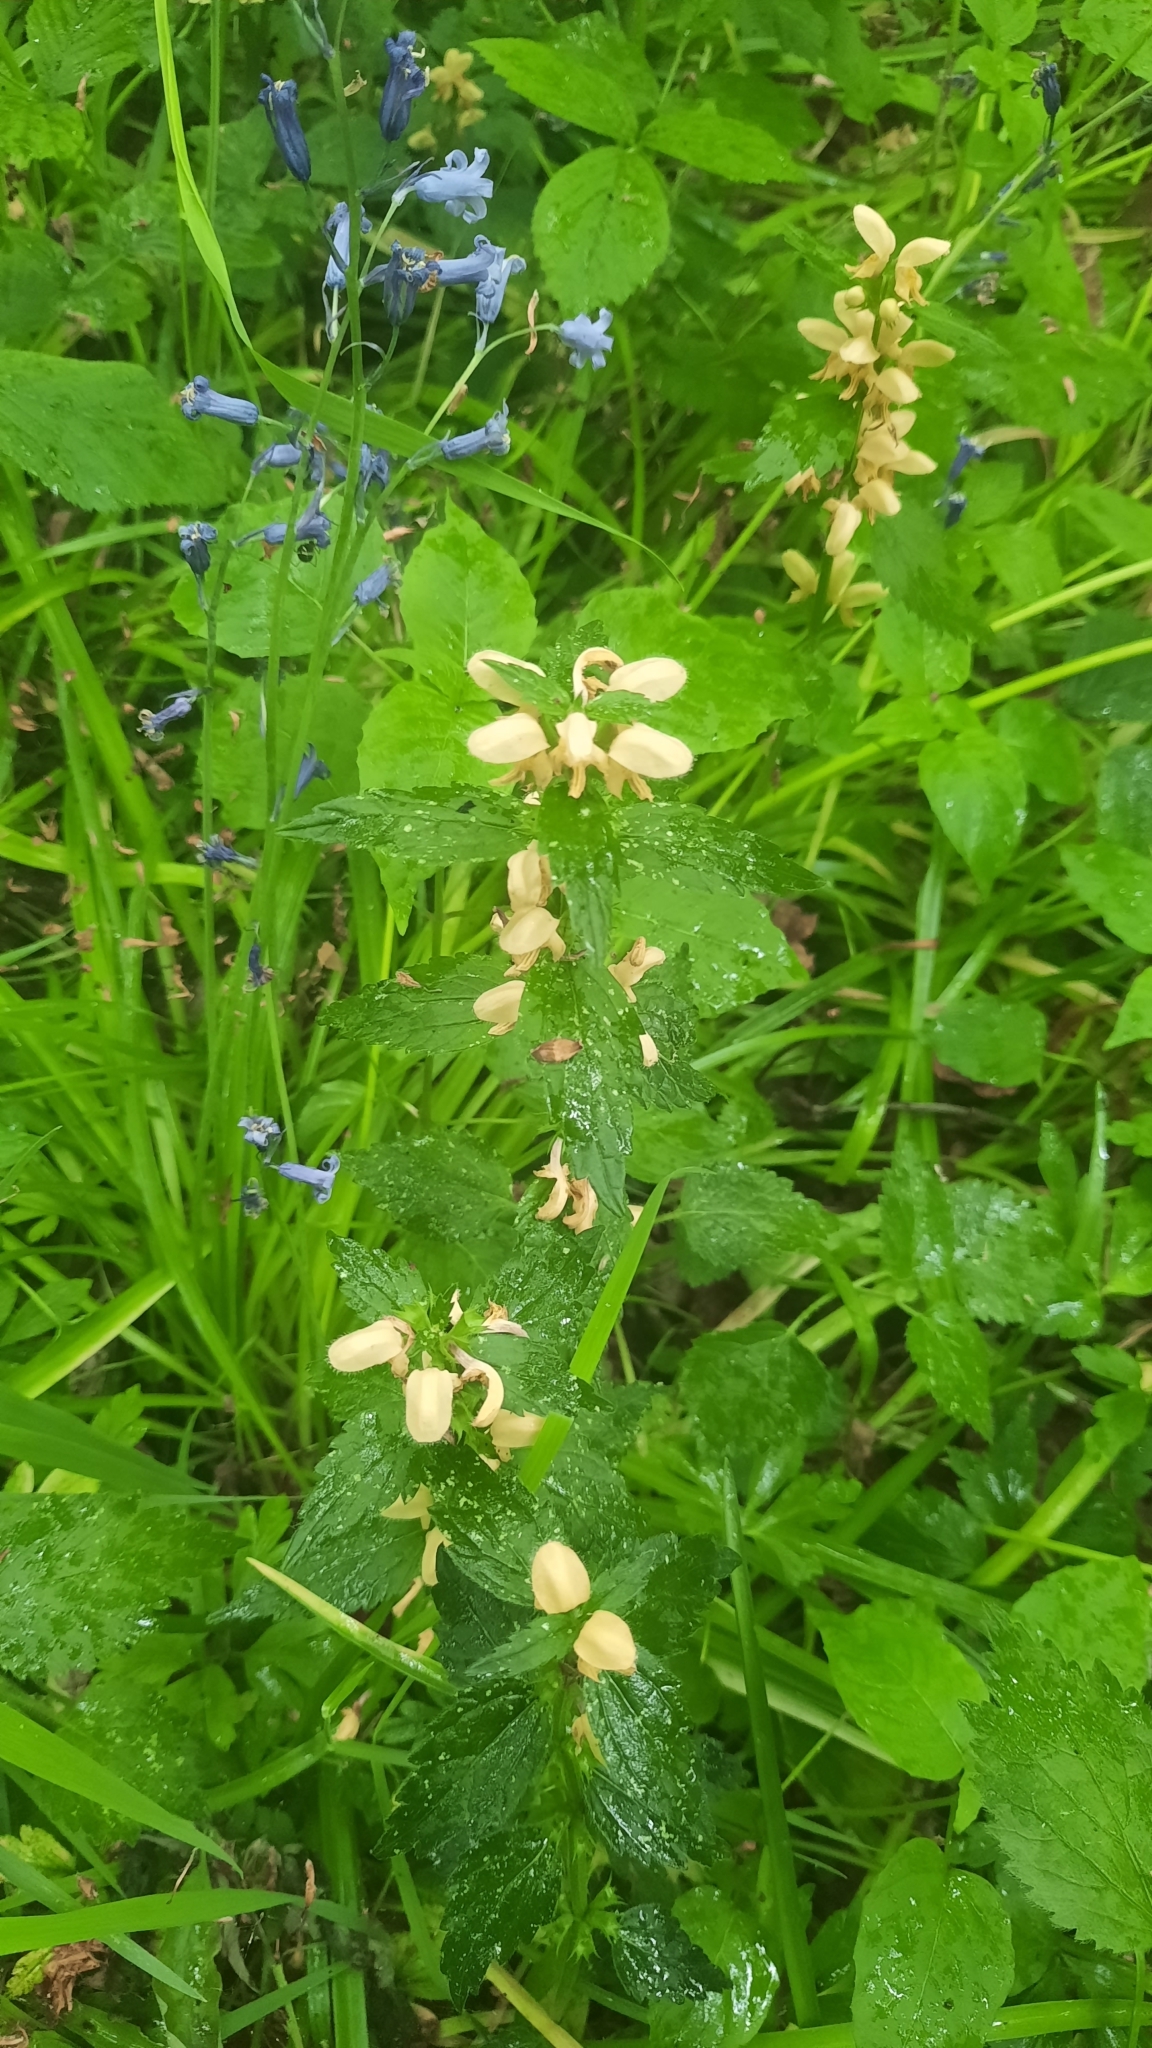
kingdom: Plantae
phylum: Tracheophyta
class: Magnoliopsida
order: Lamiales
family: Lamiaceae
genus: Lamium
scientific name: Lamium galeobdolon
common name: Yellow archangel
